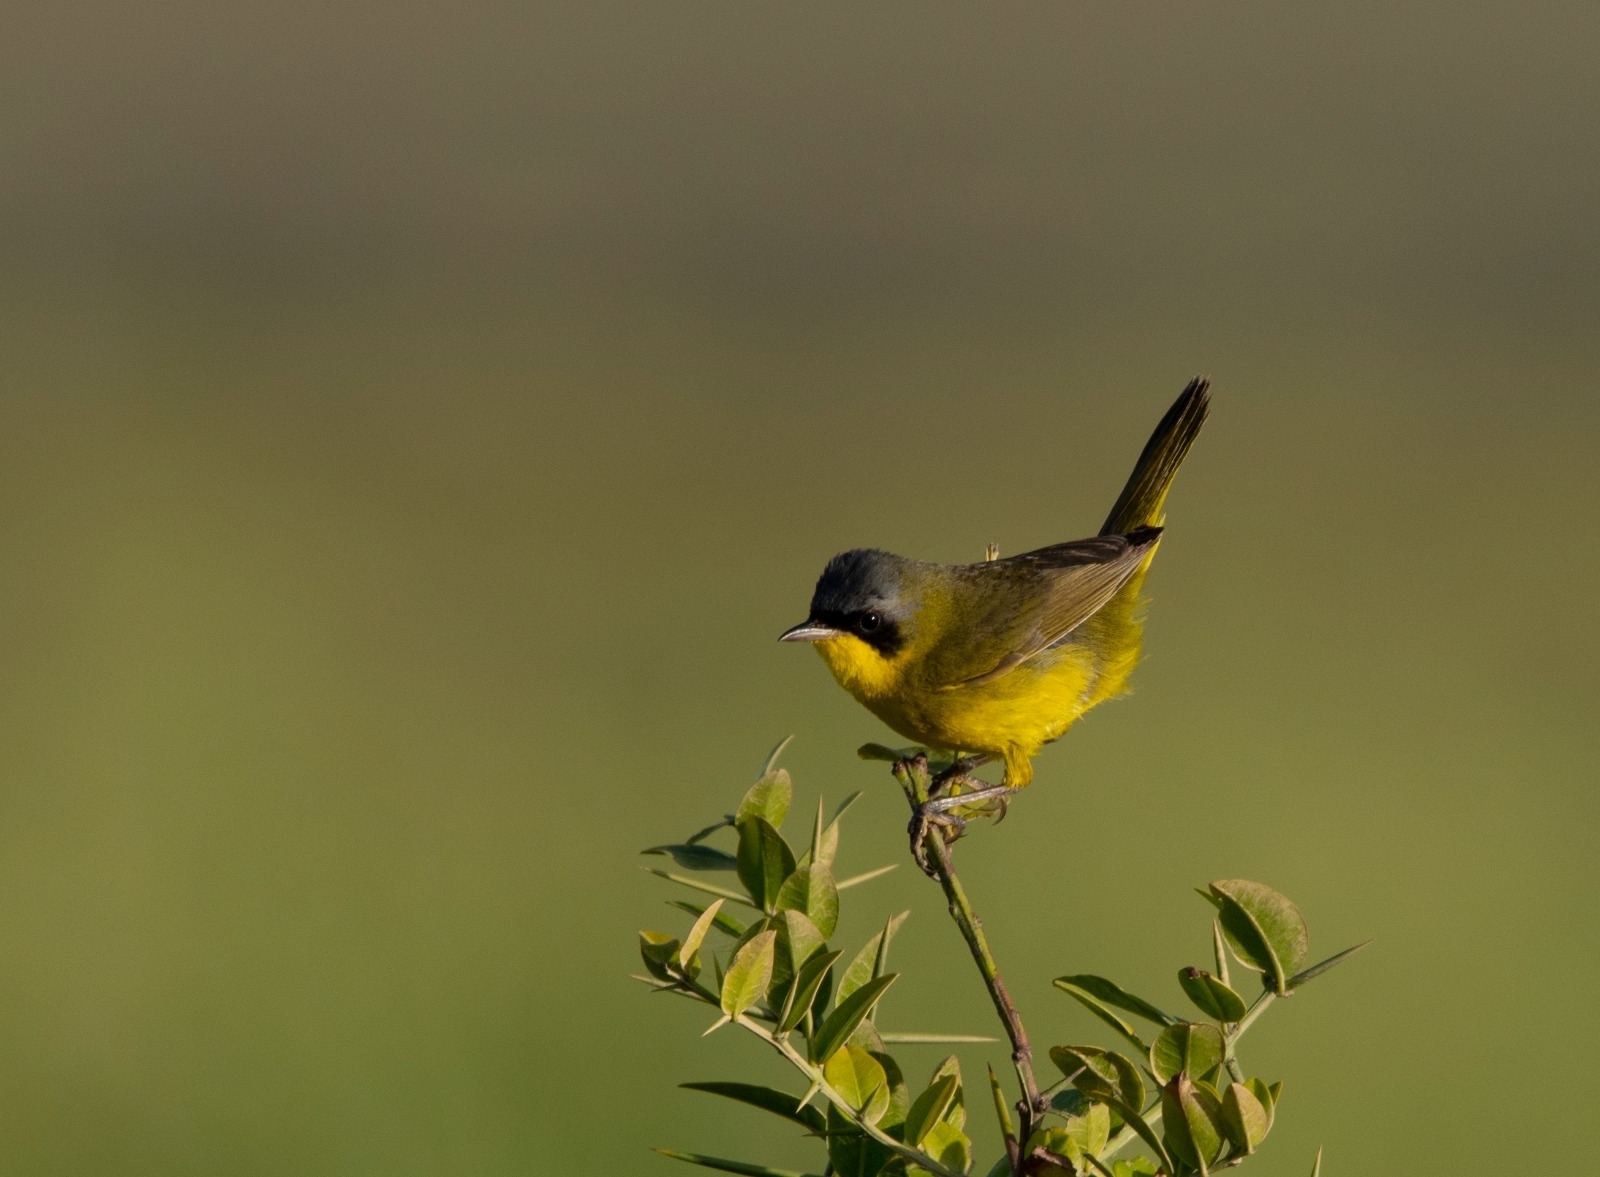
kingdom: Animalia
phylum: Chordata
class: Aves
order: Passeriformes
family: Parulidae
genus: Geothlypis
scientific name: Geothlypis velata
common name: Southern yellowthroat
